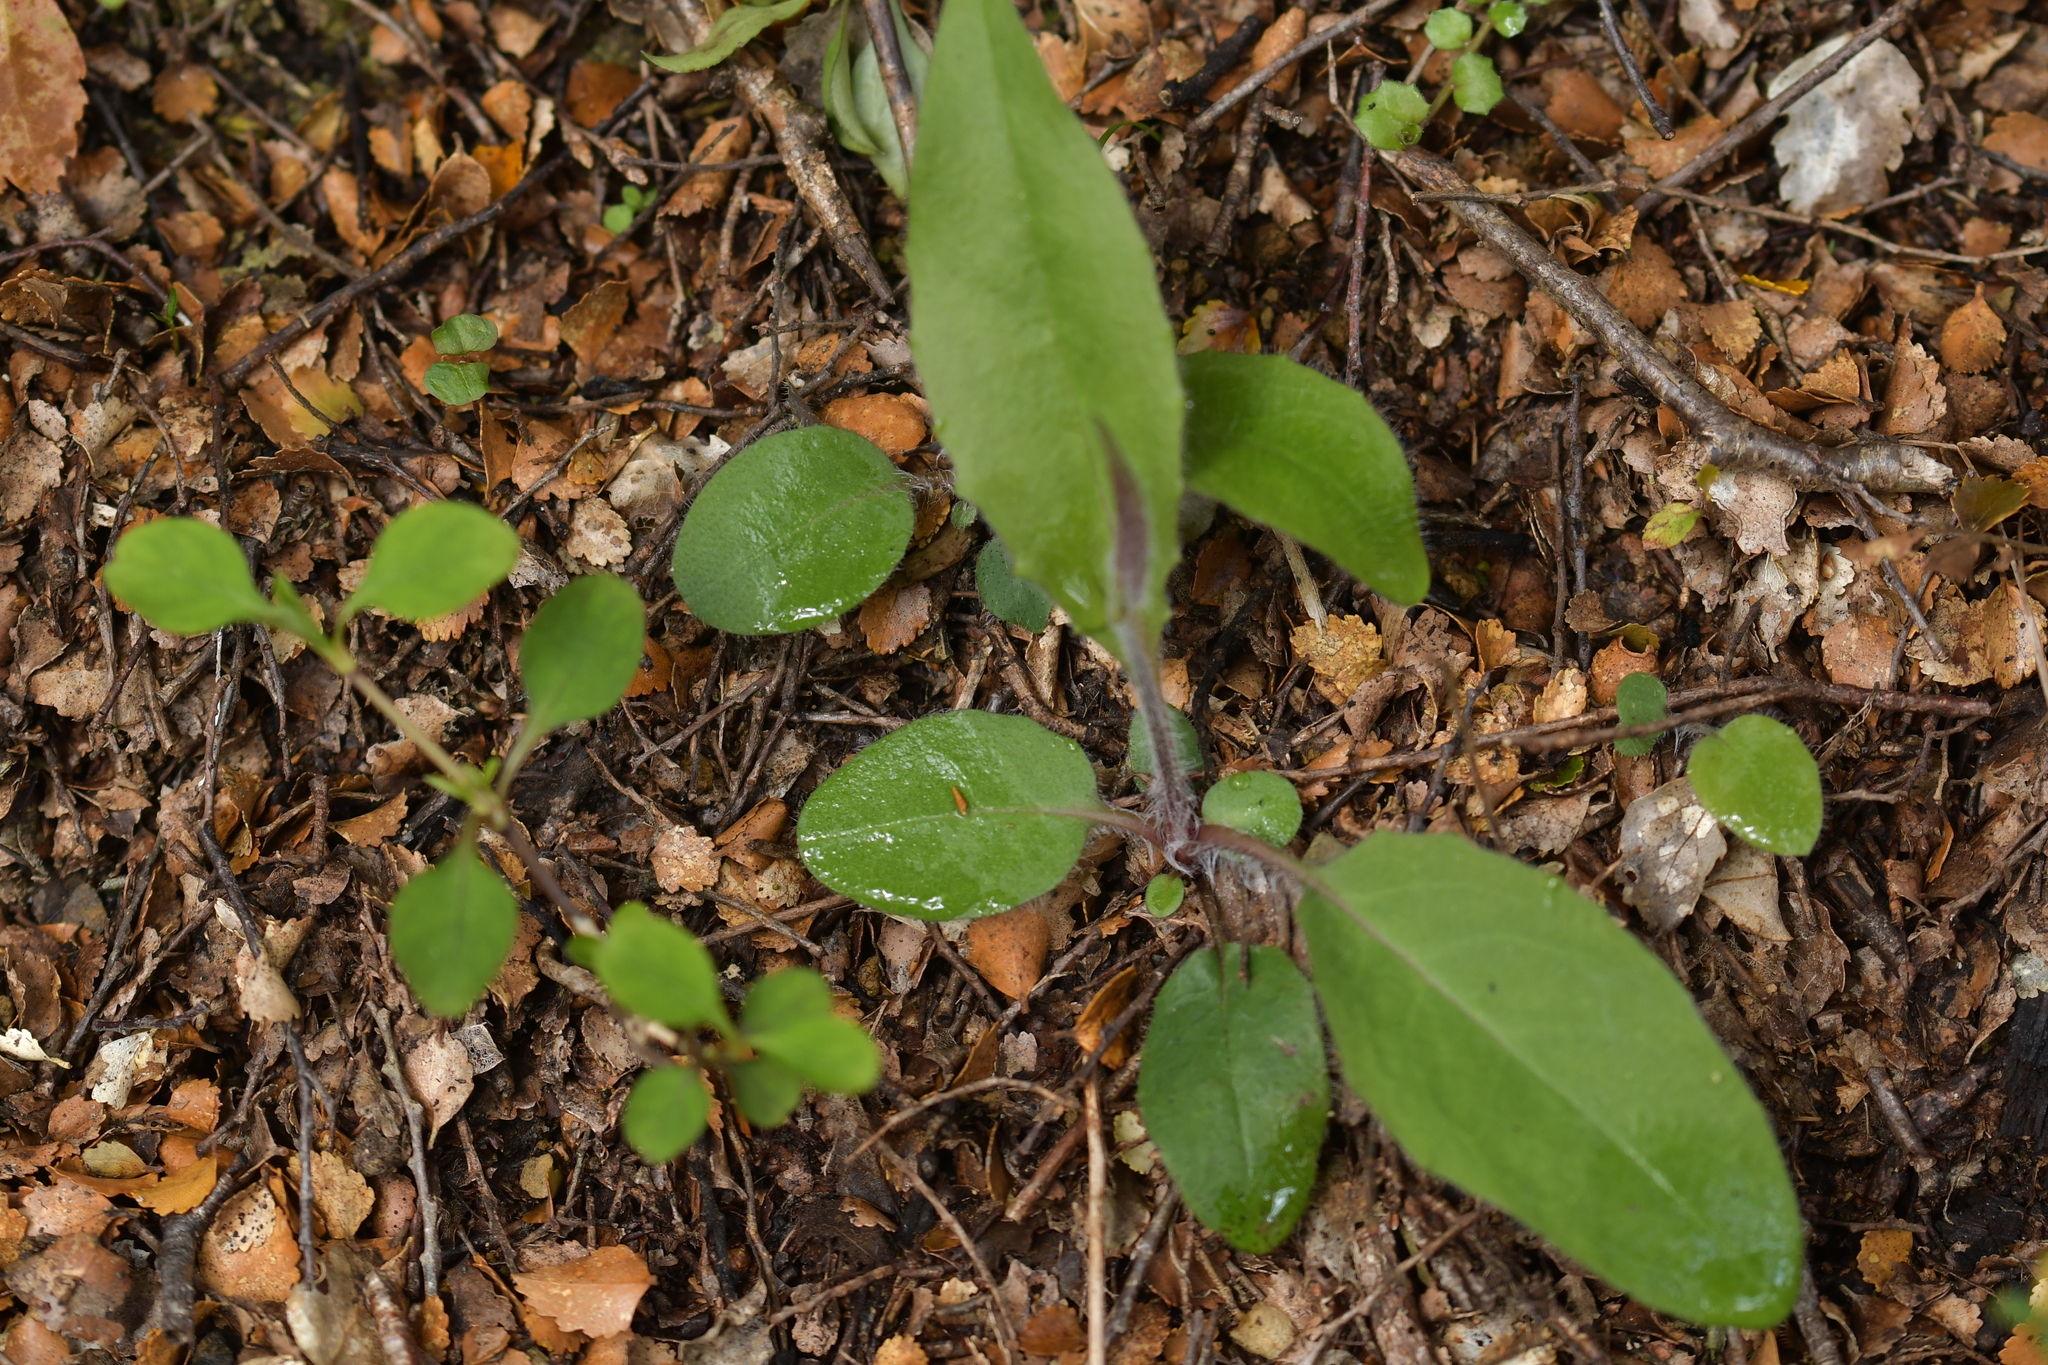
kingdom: Plantae
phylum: Tracheophyta
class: Magnoliopsida
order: Asterales
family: Asteraceae
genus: Hieracium
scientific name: Hieracium lepidulum
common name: Irregular-toothed hawkweed
